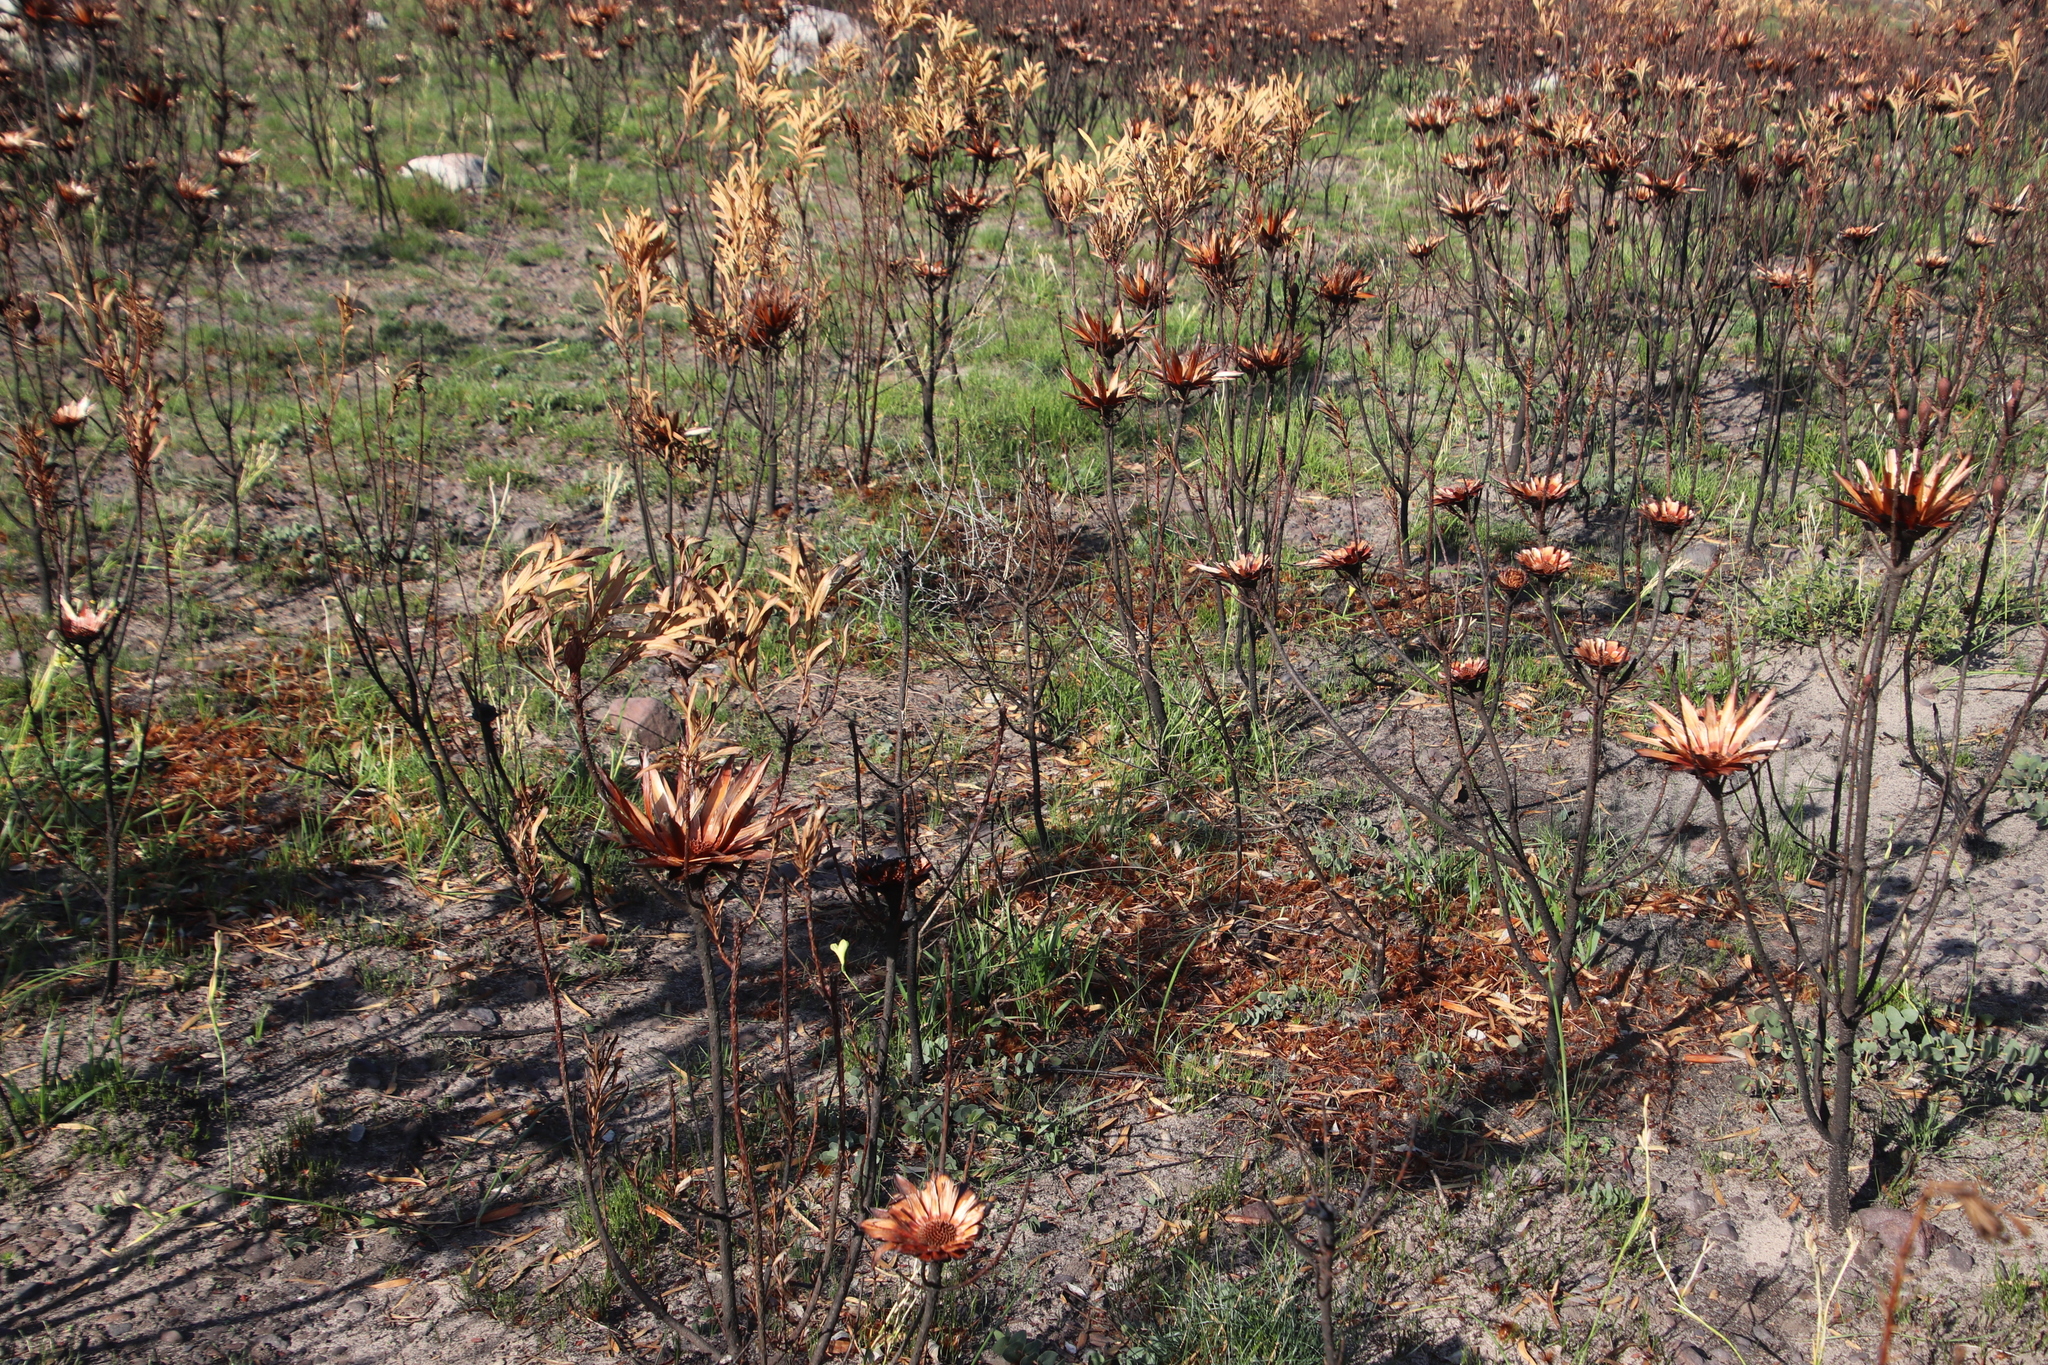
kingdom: Plantae
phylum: Tracheophyta
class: Magnoliopsida
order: Proteales
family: Proteaceae
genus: Protea
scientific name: Protea repens
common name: Sugarbush
